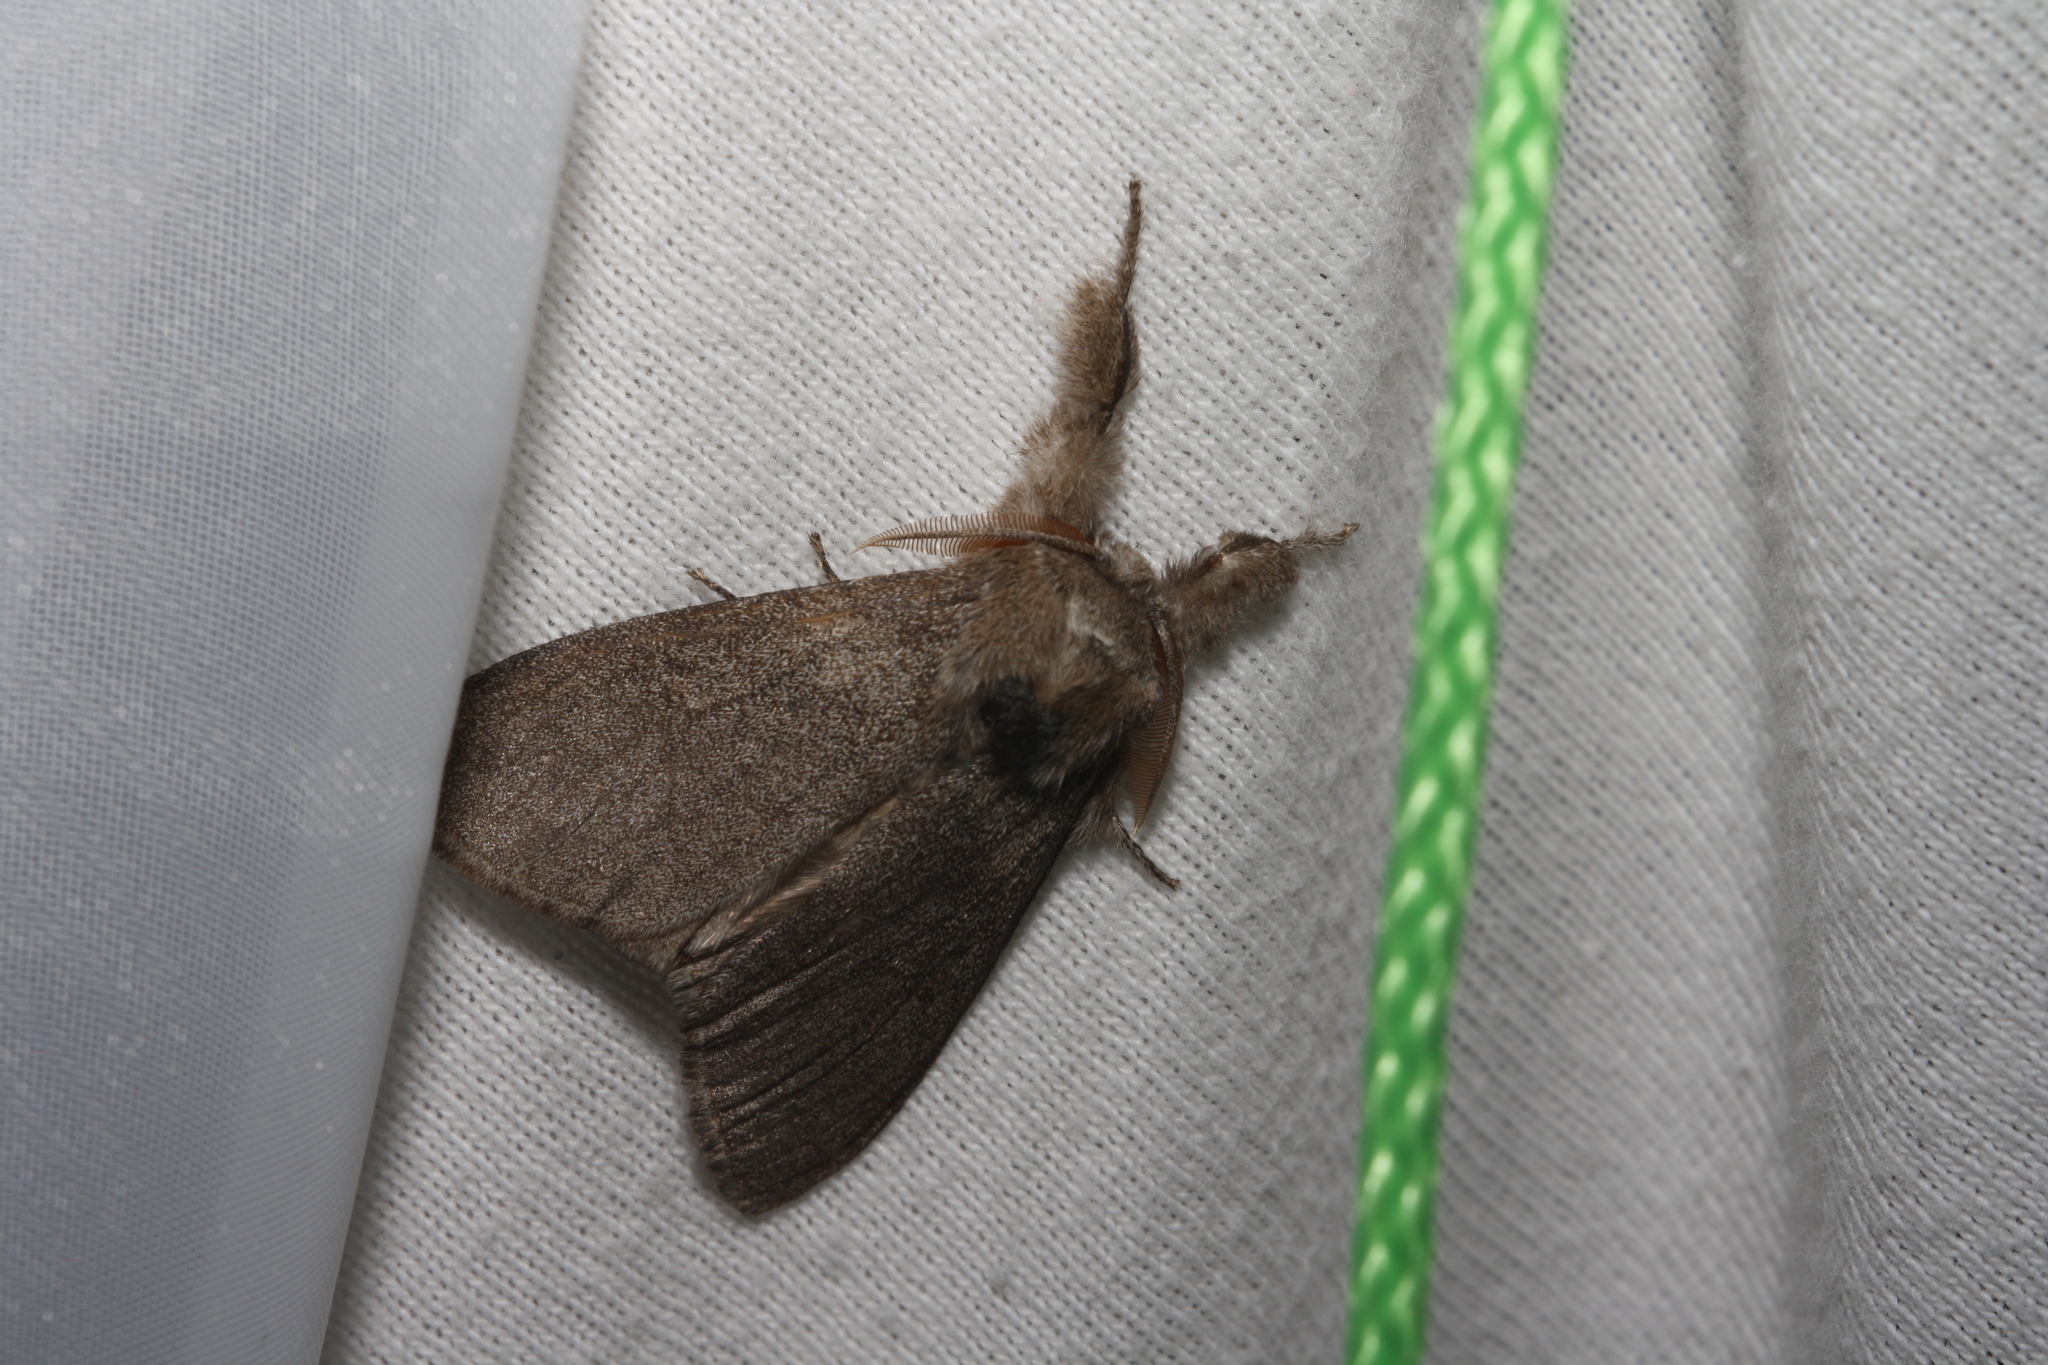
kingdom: Animalia
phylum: Arthropoda
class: Insecta
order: Lepidoptera
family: Erebidae
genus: Calliteara
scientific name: Calliteara pudibunda
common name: Pale tussock
